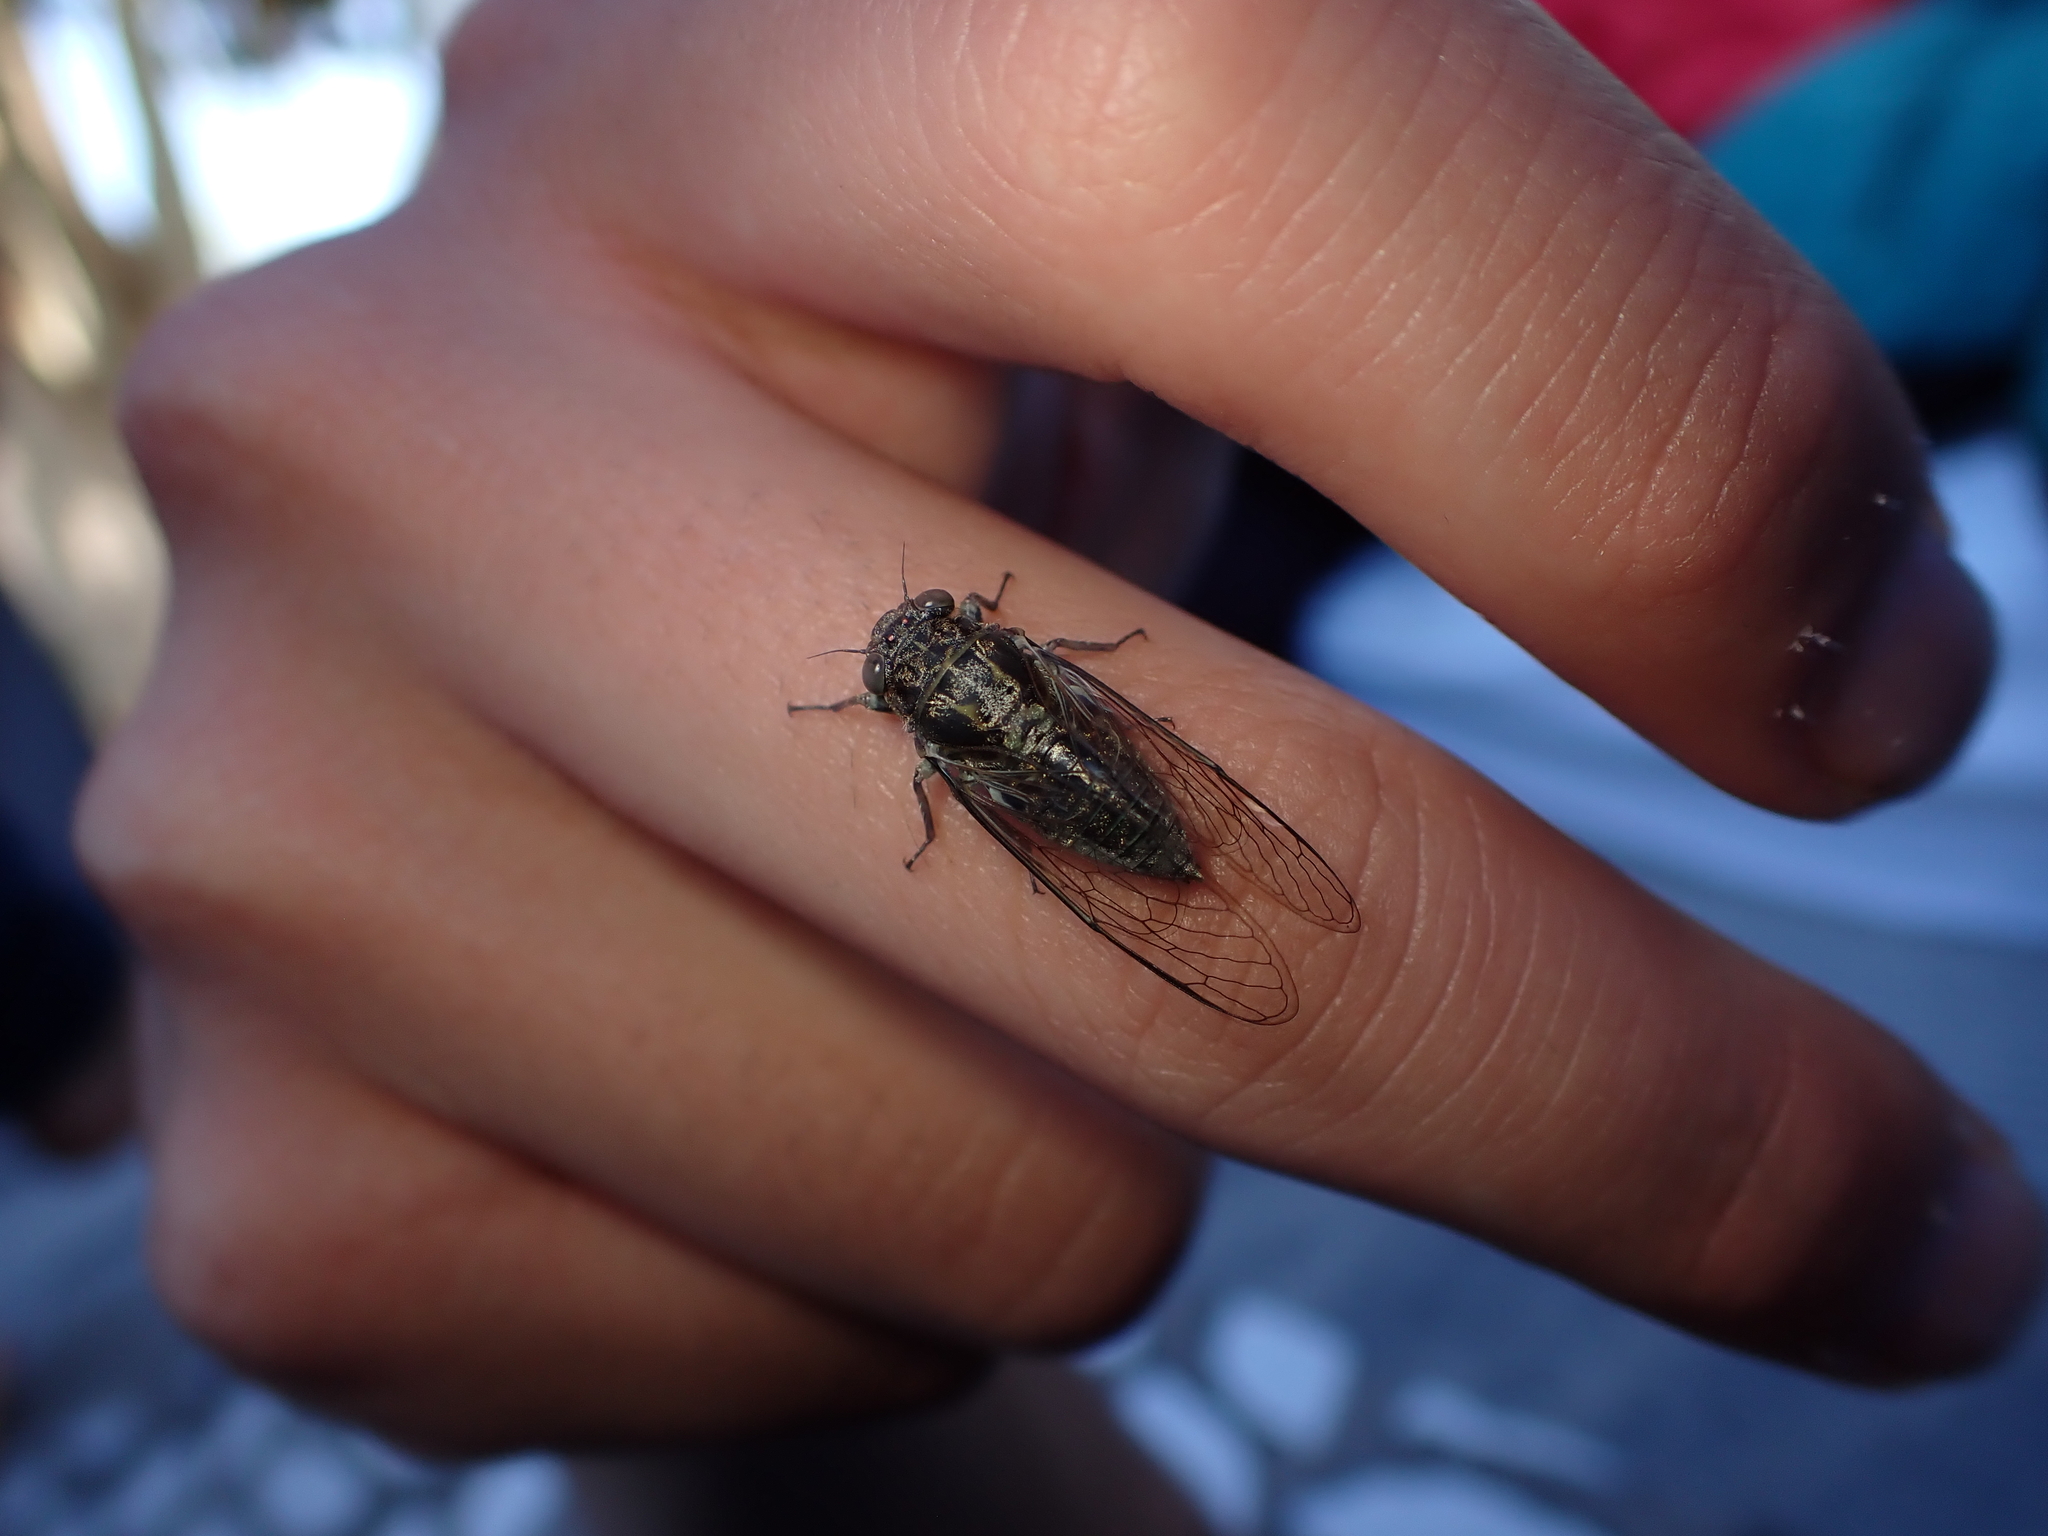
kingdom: Animalia
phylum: Arthropoda
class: Insecta
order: Hemiptera
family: Cicadidae
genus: Notopsalta
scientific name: Notopsalta sericea
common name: Clay bank cicada
